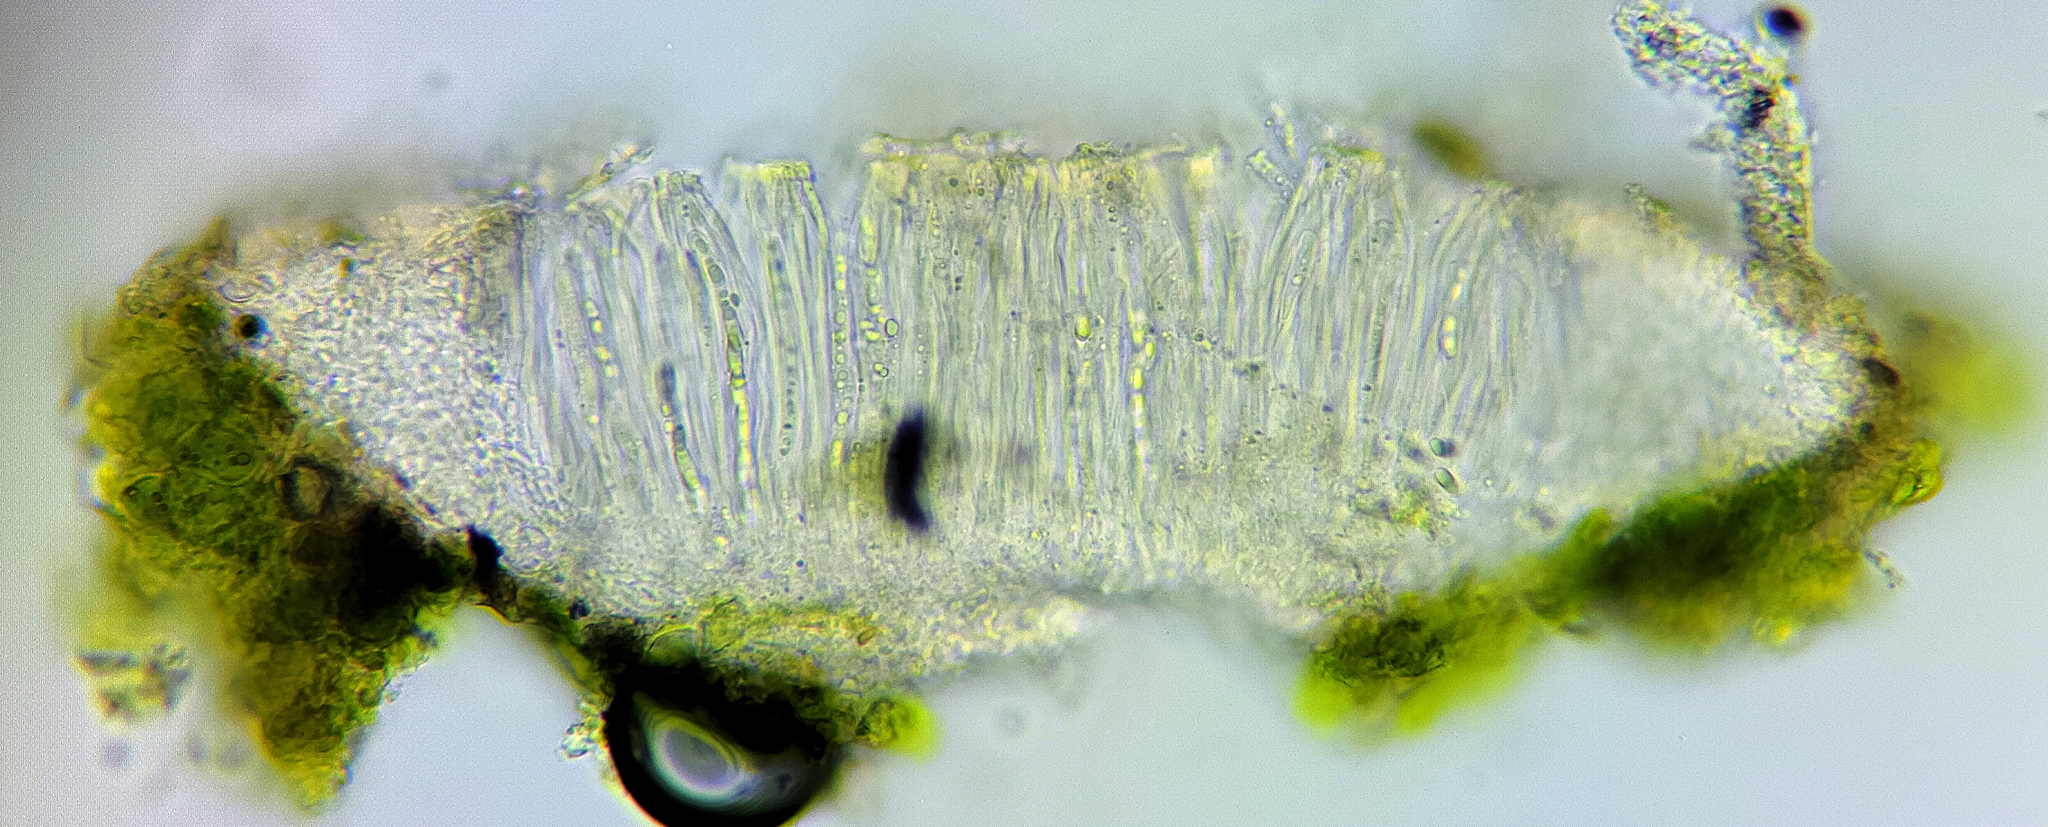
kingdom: Fungi
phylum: Ascomycota
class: Lecanoromycetes
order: Ostropales
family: Coenogoniaceae
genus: Coenogonium
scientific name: Coenogonium pineti
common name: Pink dimple lichen
